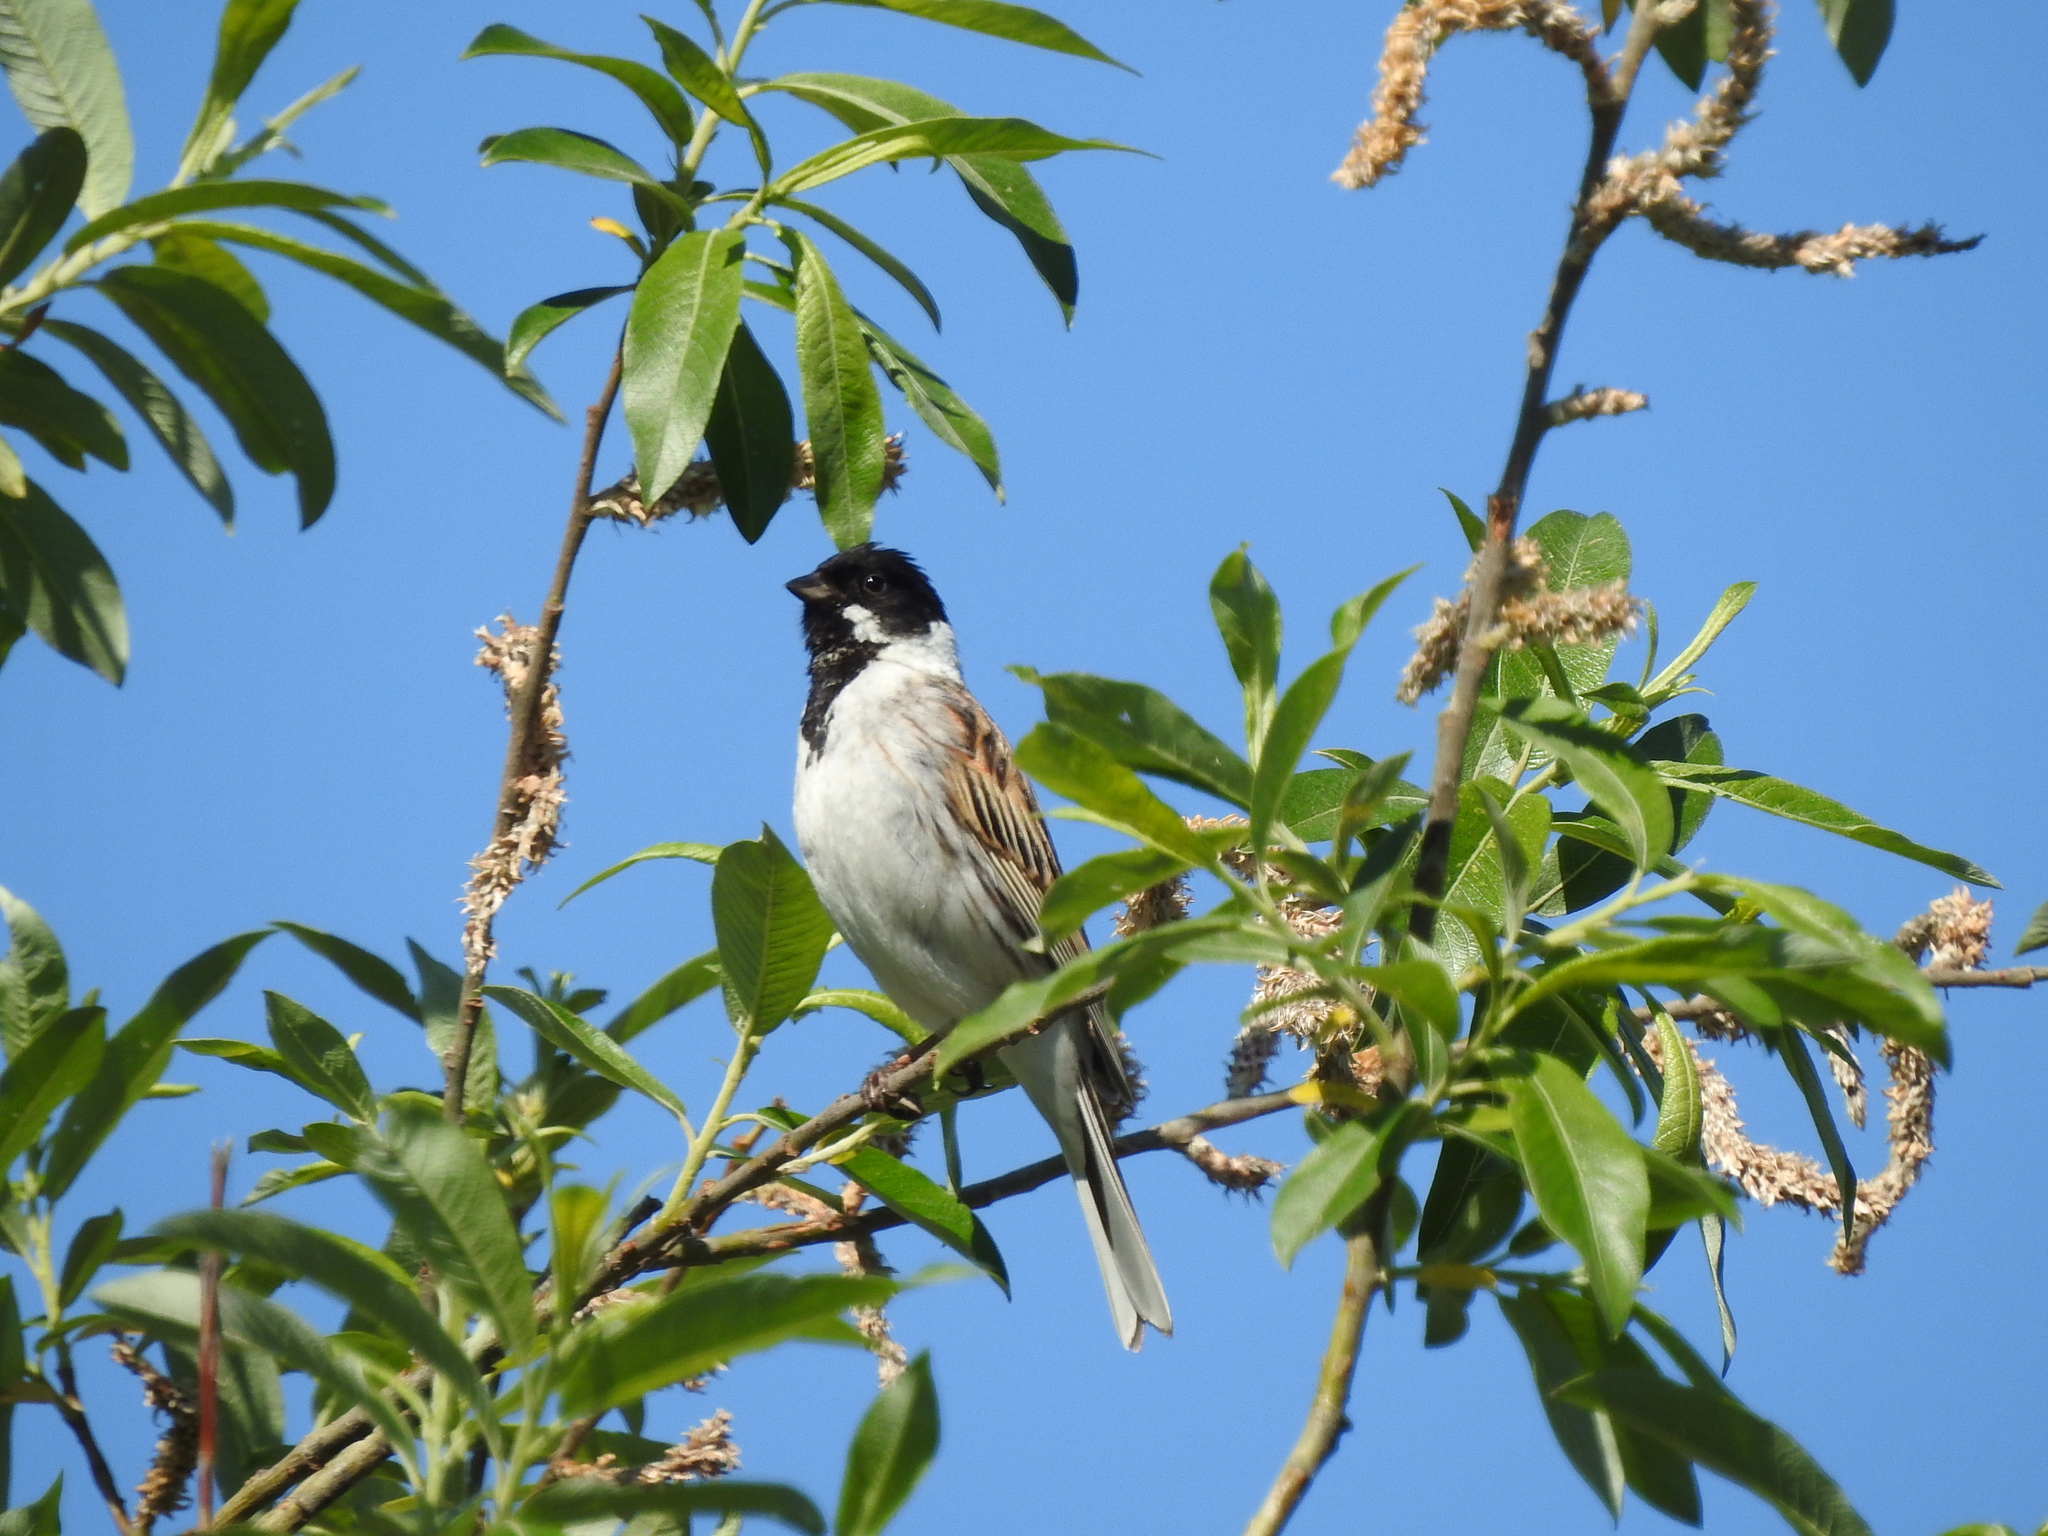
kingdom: Animalia
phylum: Chordata
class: Aves
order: Passeriformes
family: Emberizidae
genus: Emberiza
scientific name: Emberiza schoeniclus
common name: Reed bunting
